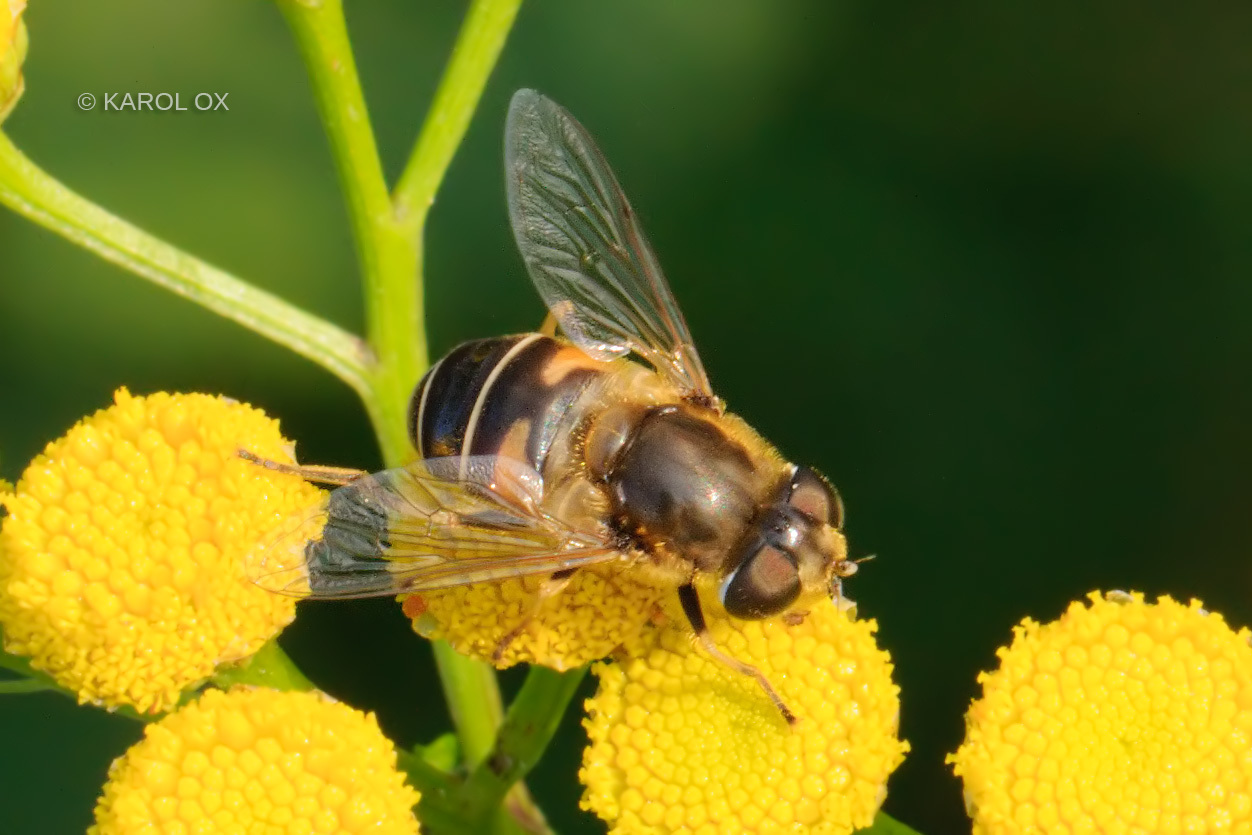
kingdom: Animalia
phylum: Arthropoda
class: Insecta
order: Diptera
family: Syrphidae
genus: Eristalis
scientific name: Eristalis nemorum
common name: Orange-spined drone fly
